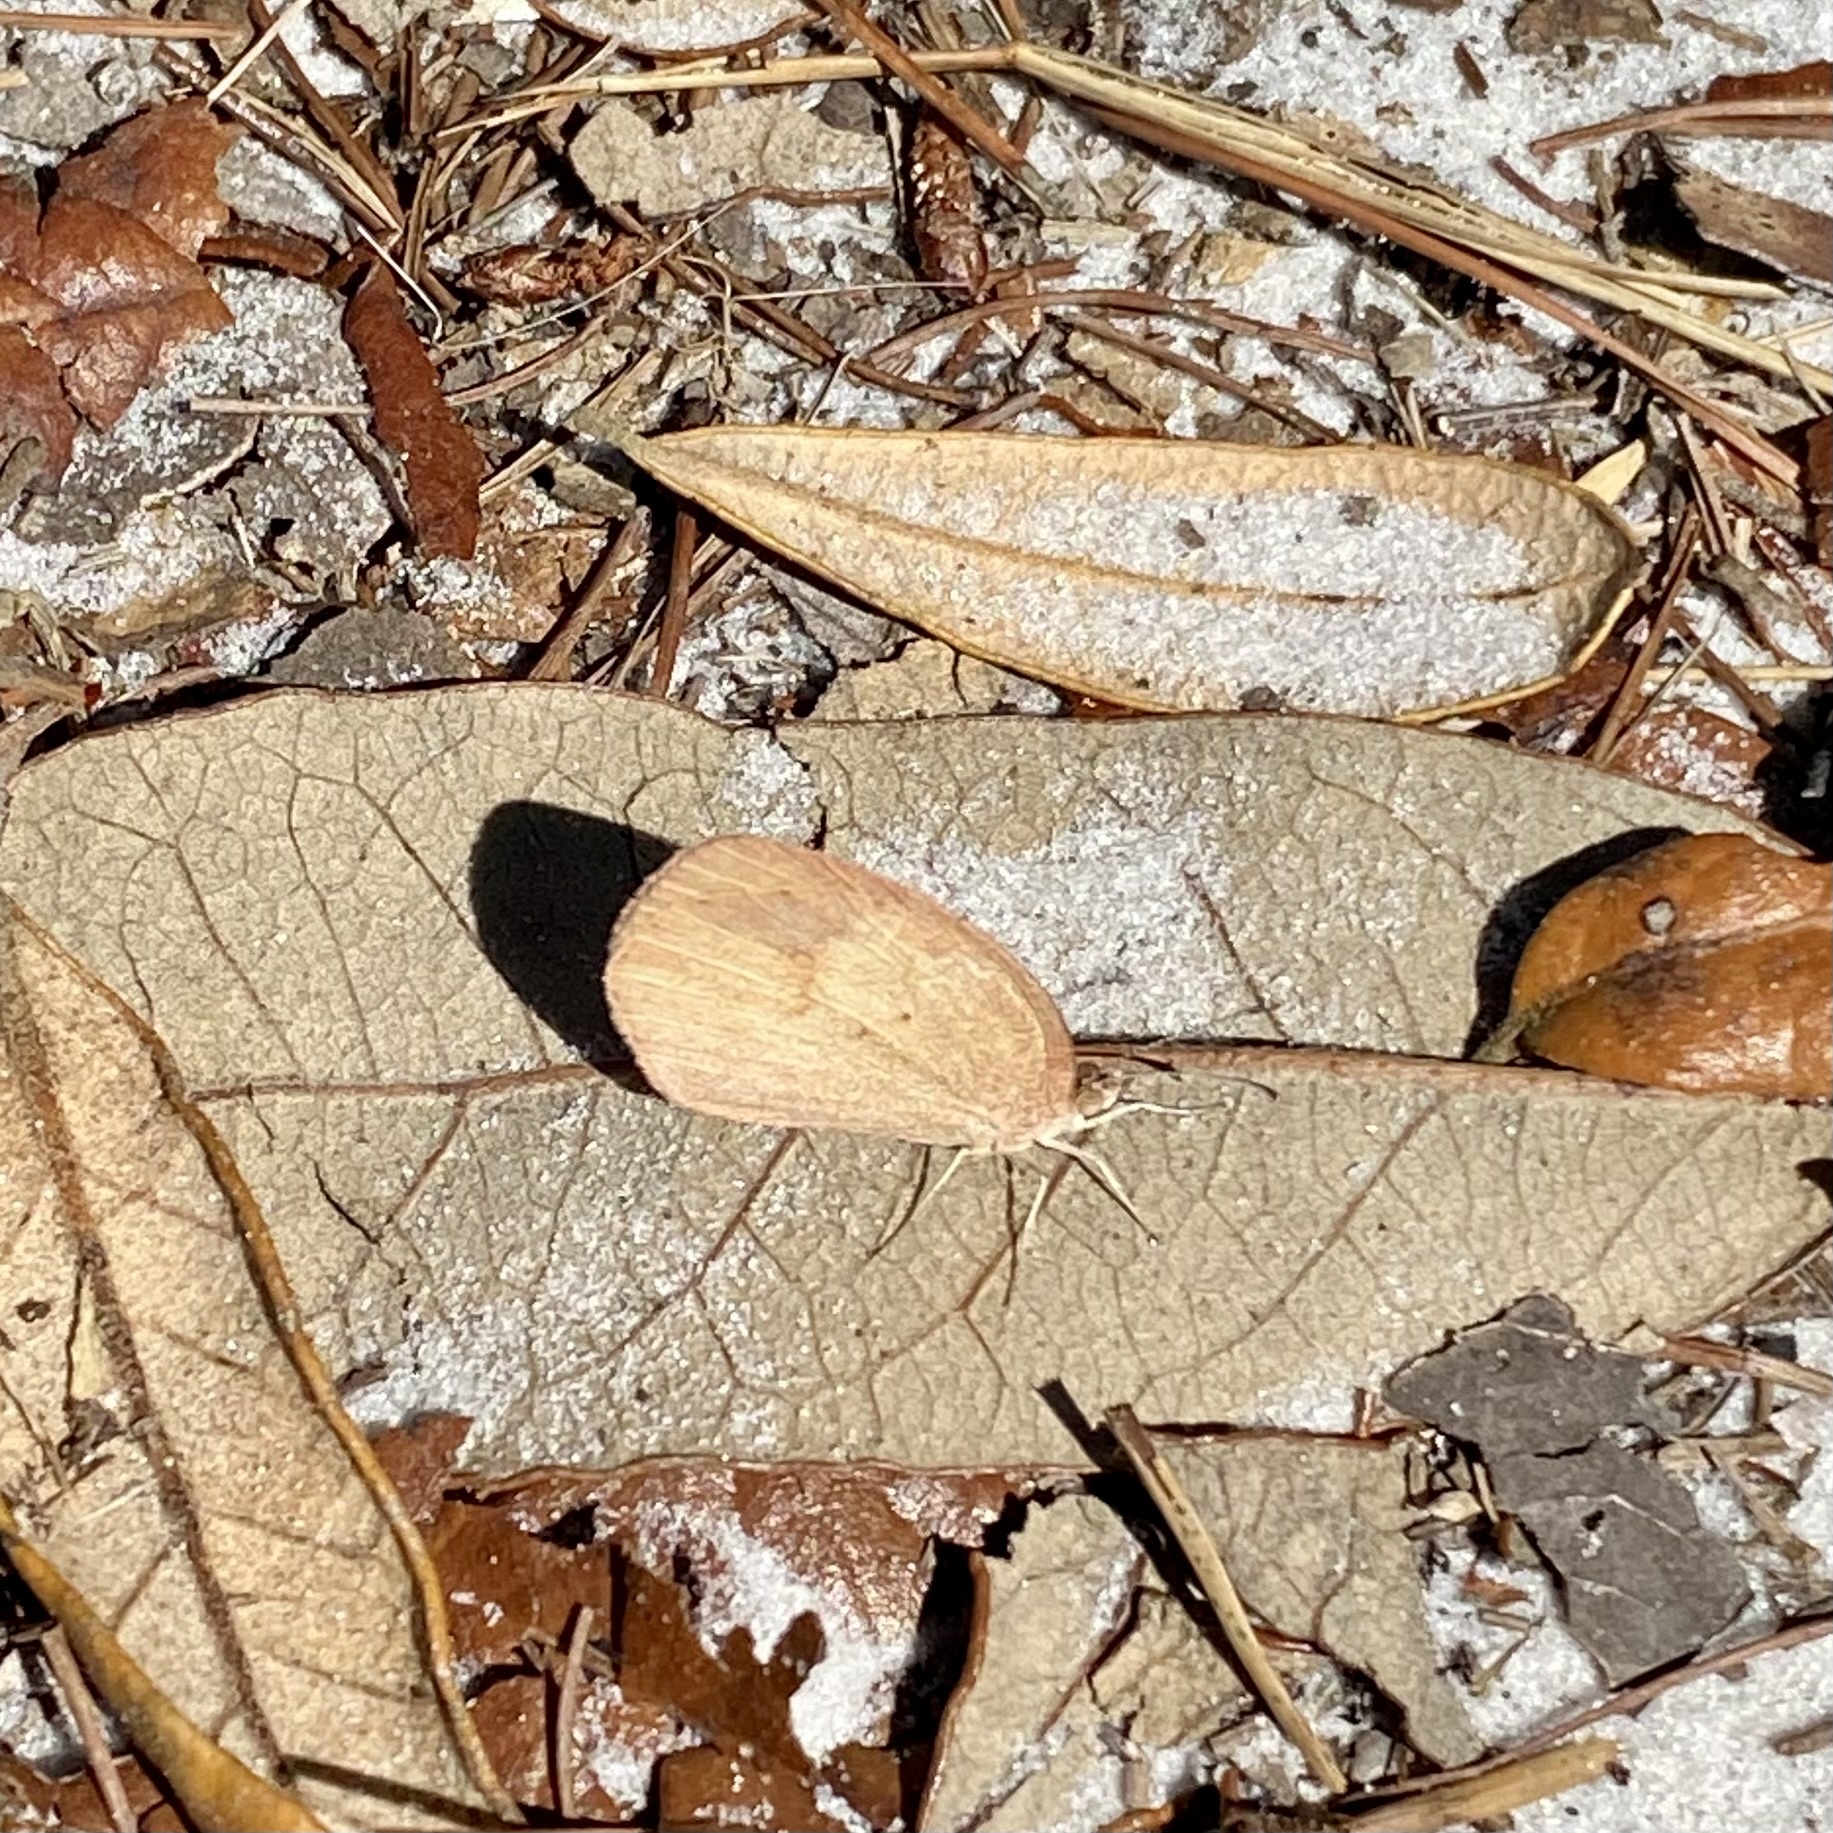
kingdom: Animalia
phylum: Arthropoda
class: Insecta
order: Lepidoptera
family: Pieridae
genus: Eurema
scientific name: Eurema daira
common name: Barred sulphur
